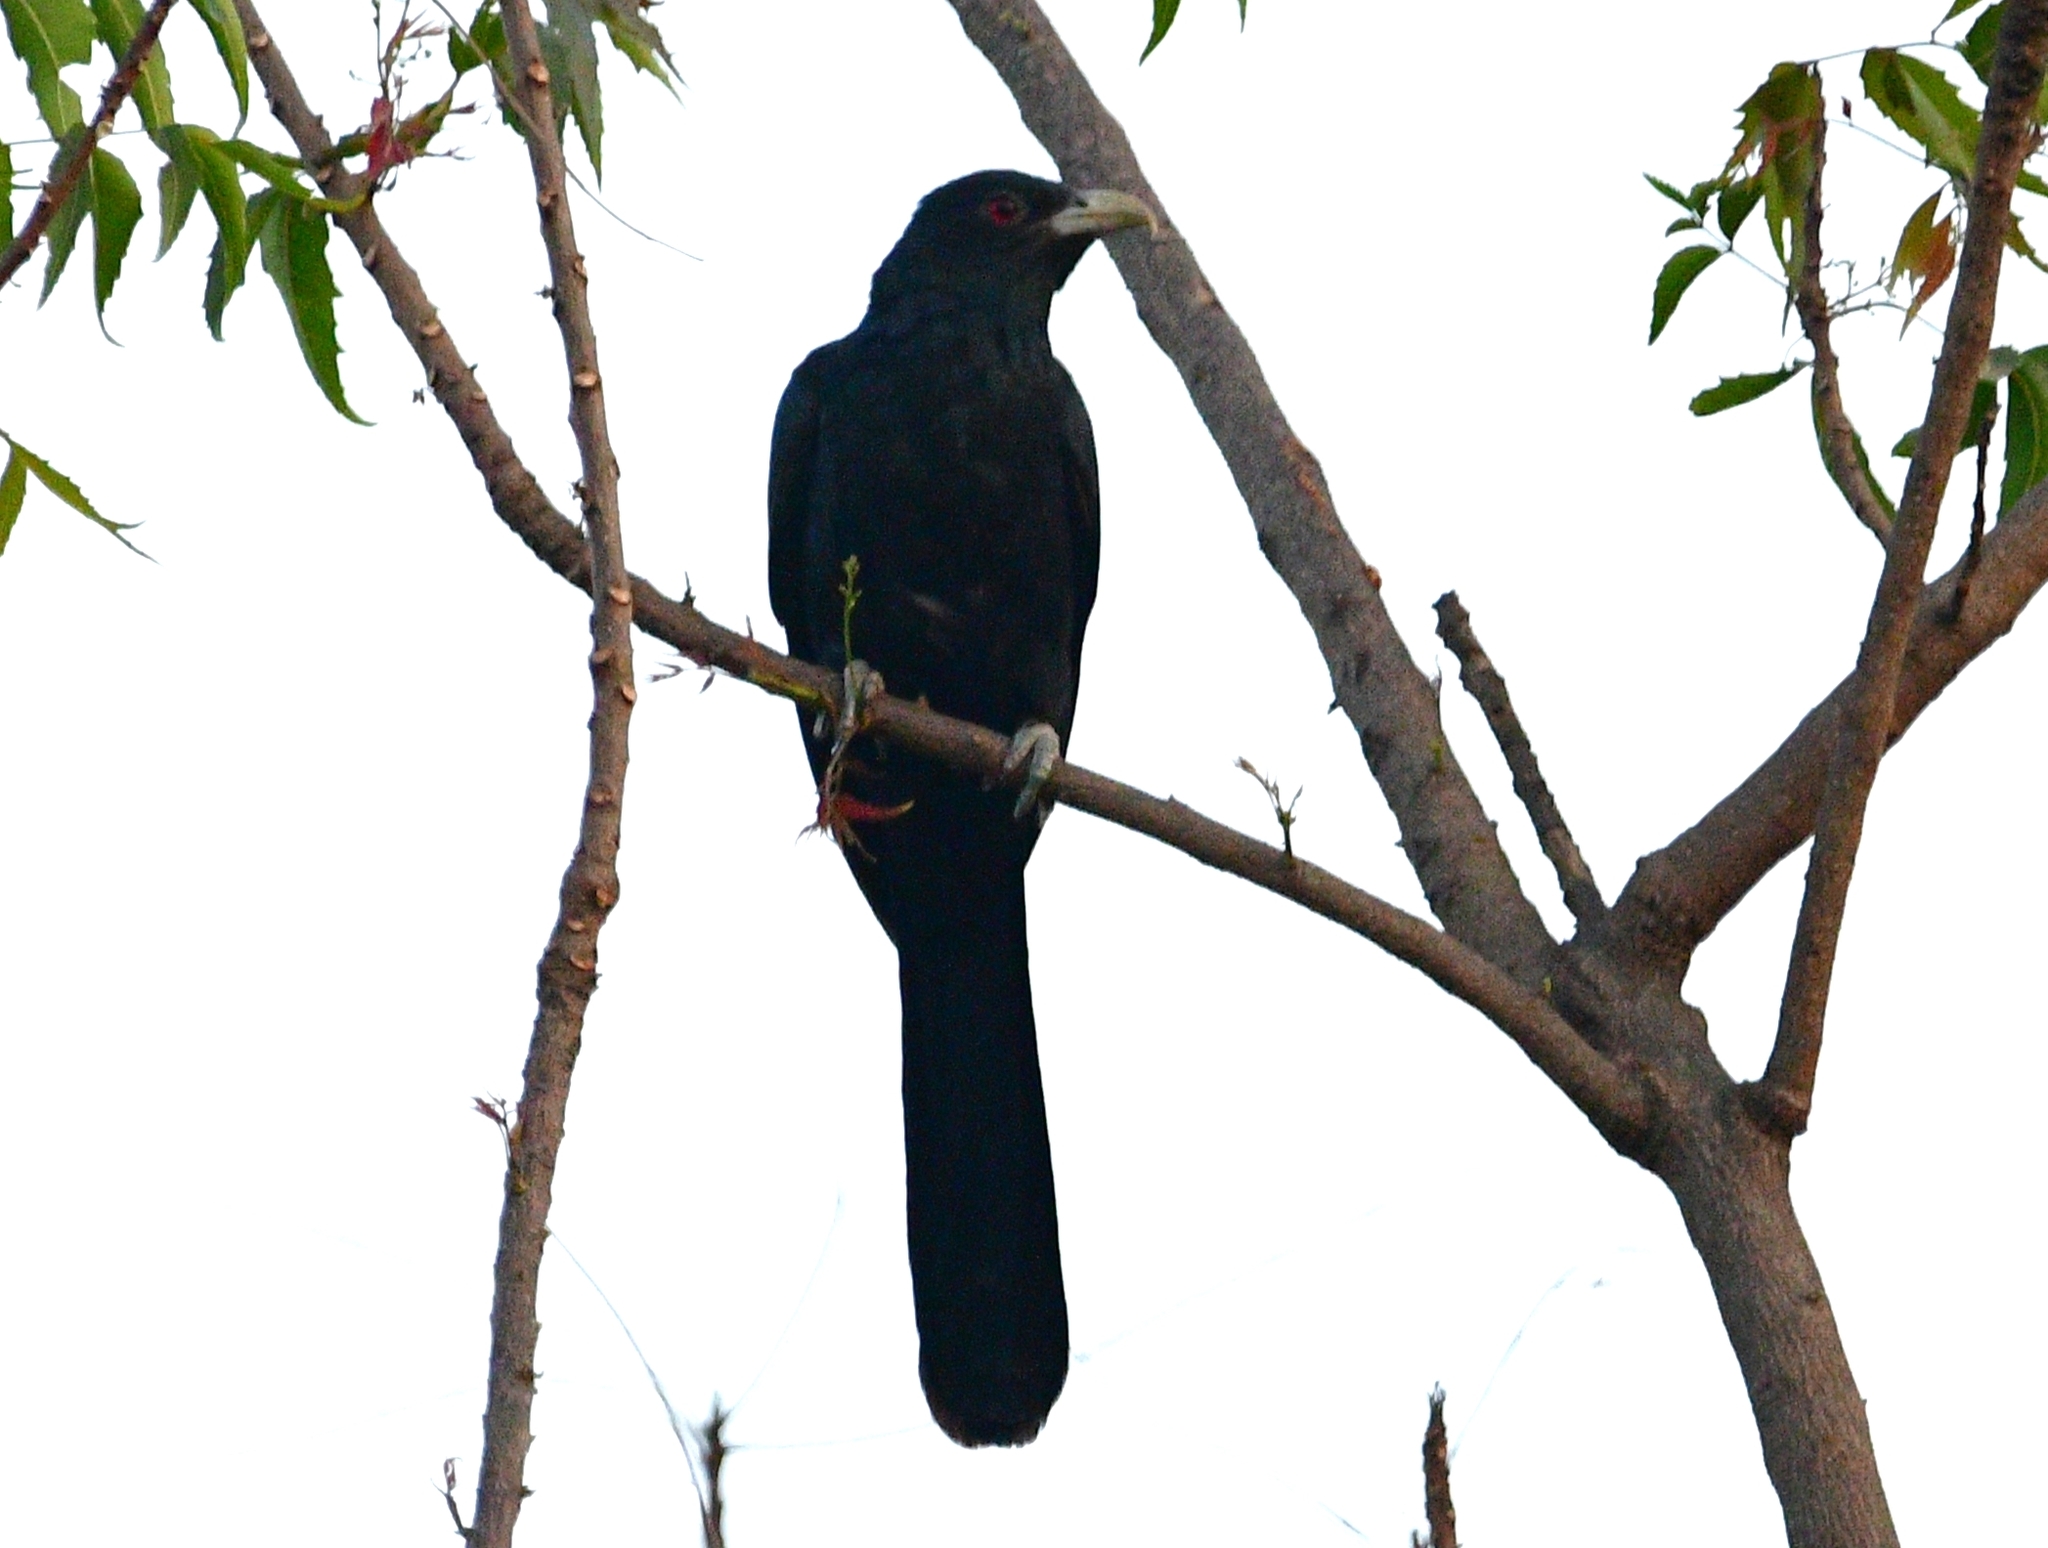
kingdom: Animalia
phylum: Chordata
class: Aves
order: Cuculiformes
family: Cuculidae
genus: Eudynamys
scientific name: Eudynamys scolopaceus
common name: Asian koel
